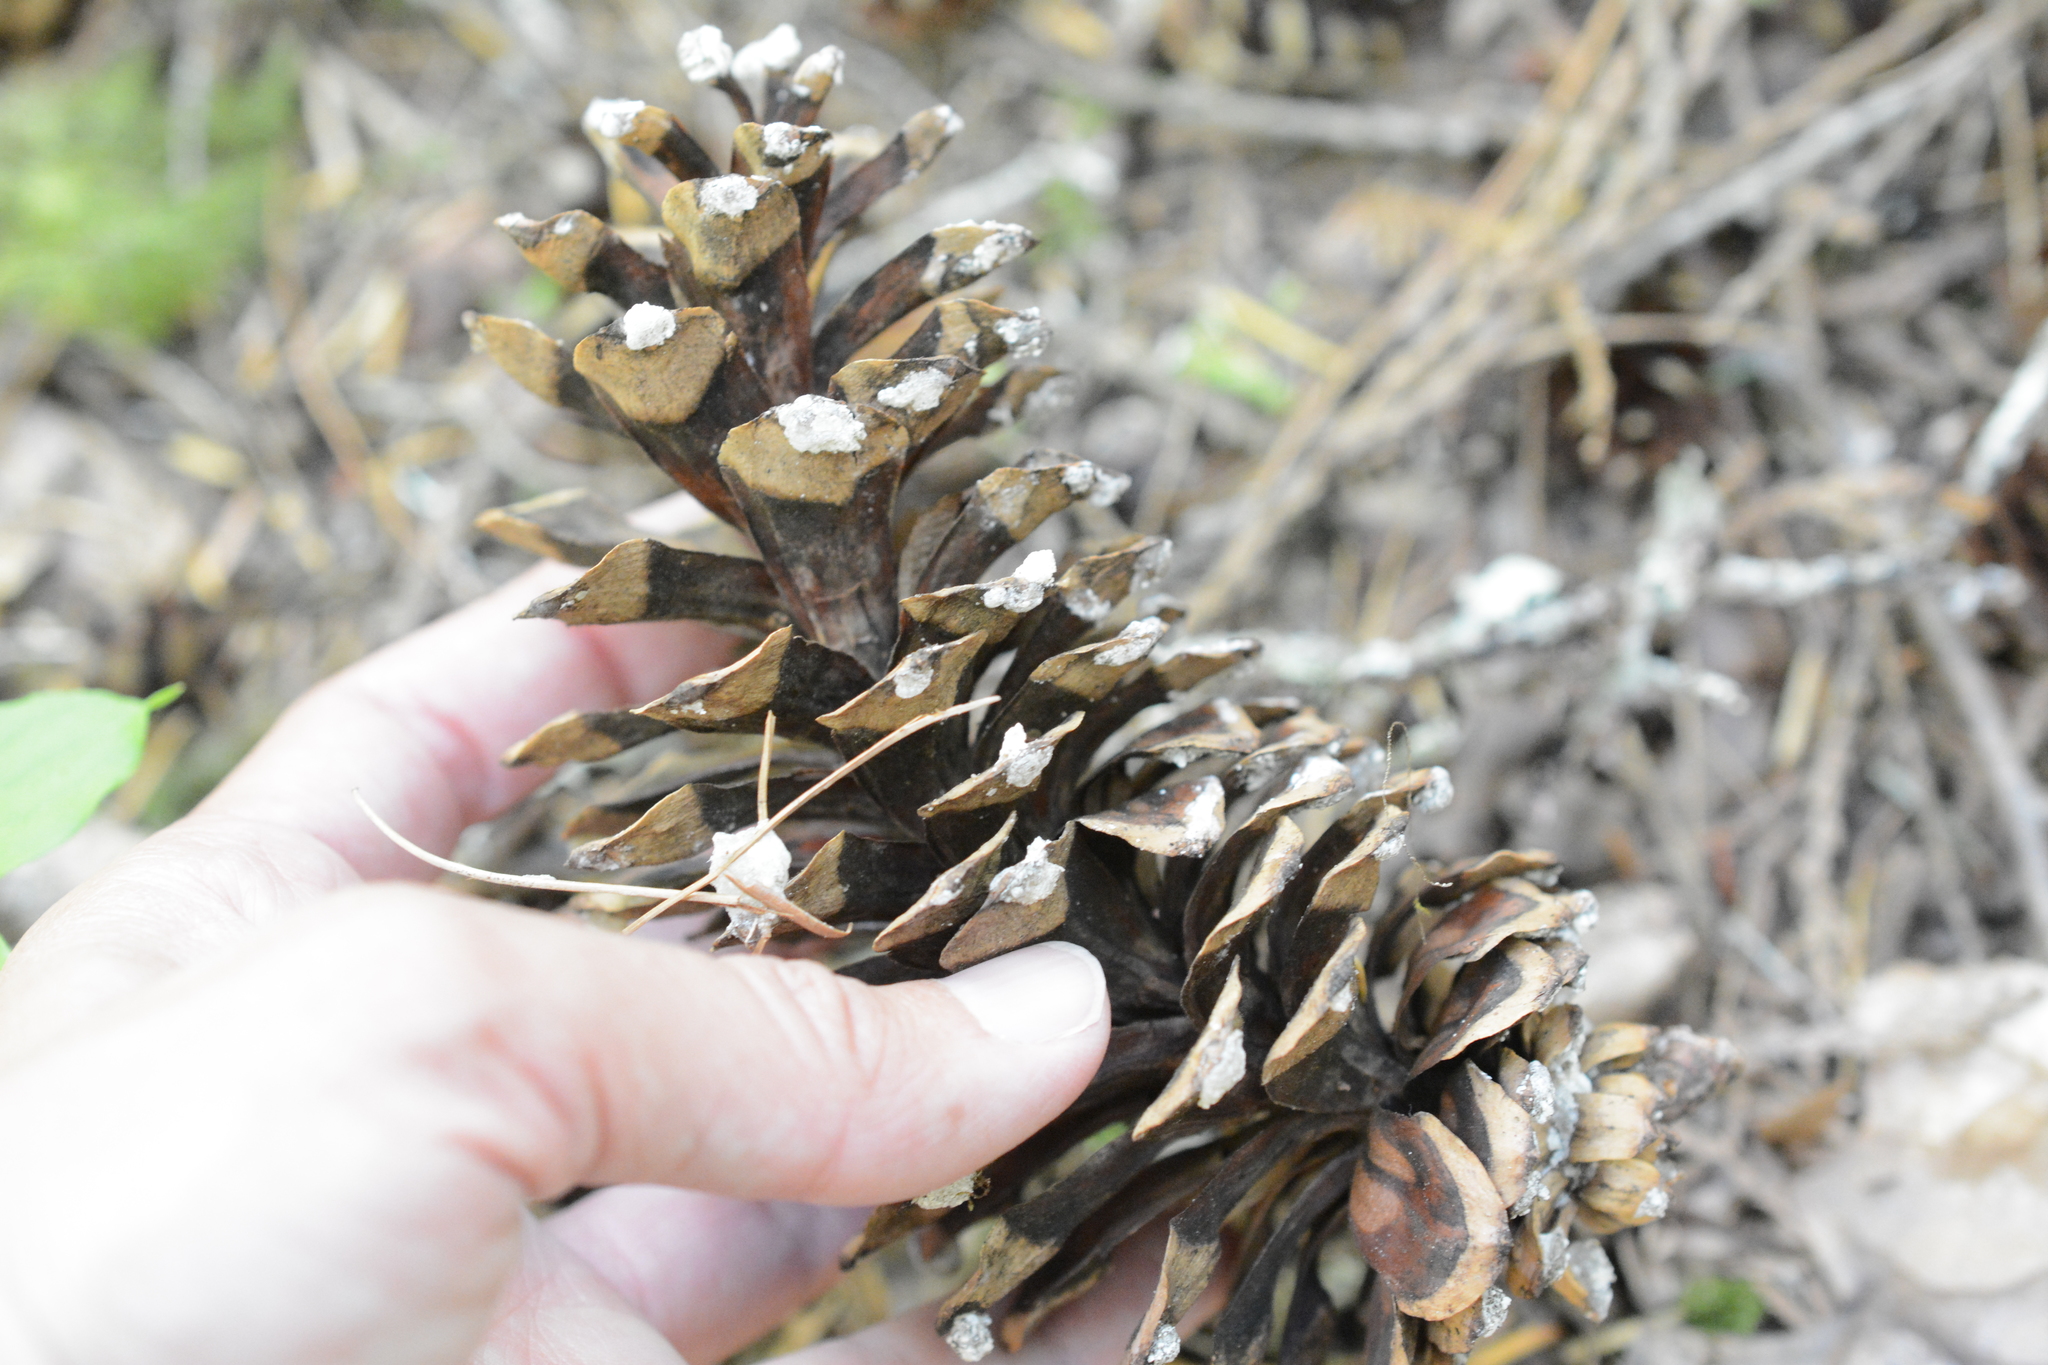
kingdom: Plantae
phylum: Tracheophyta
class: Pinopsida
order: Pinales
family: Pinaceae
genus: Pinus
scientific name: Pinus monticola
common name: Western white pine
